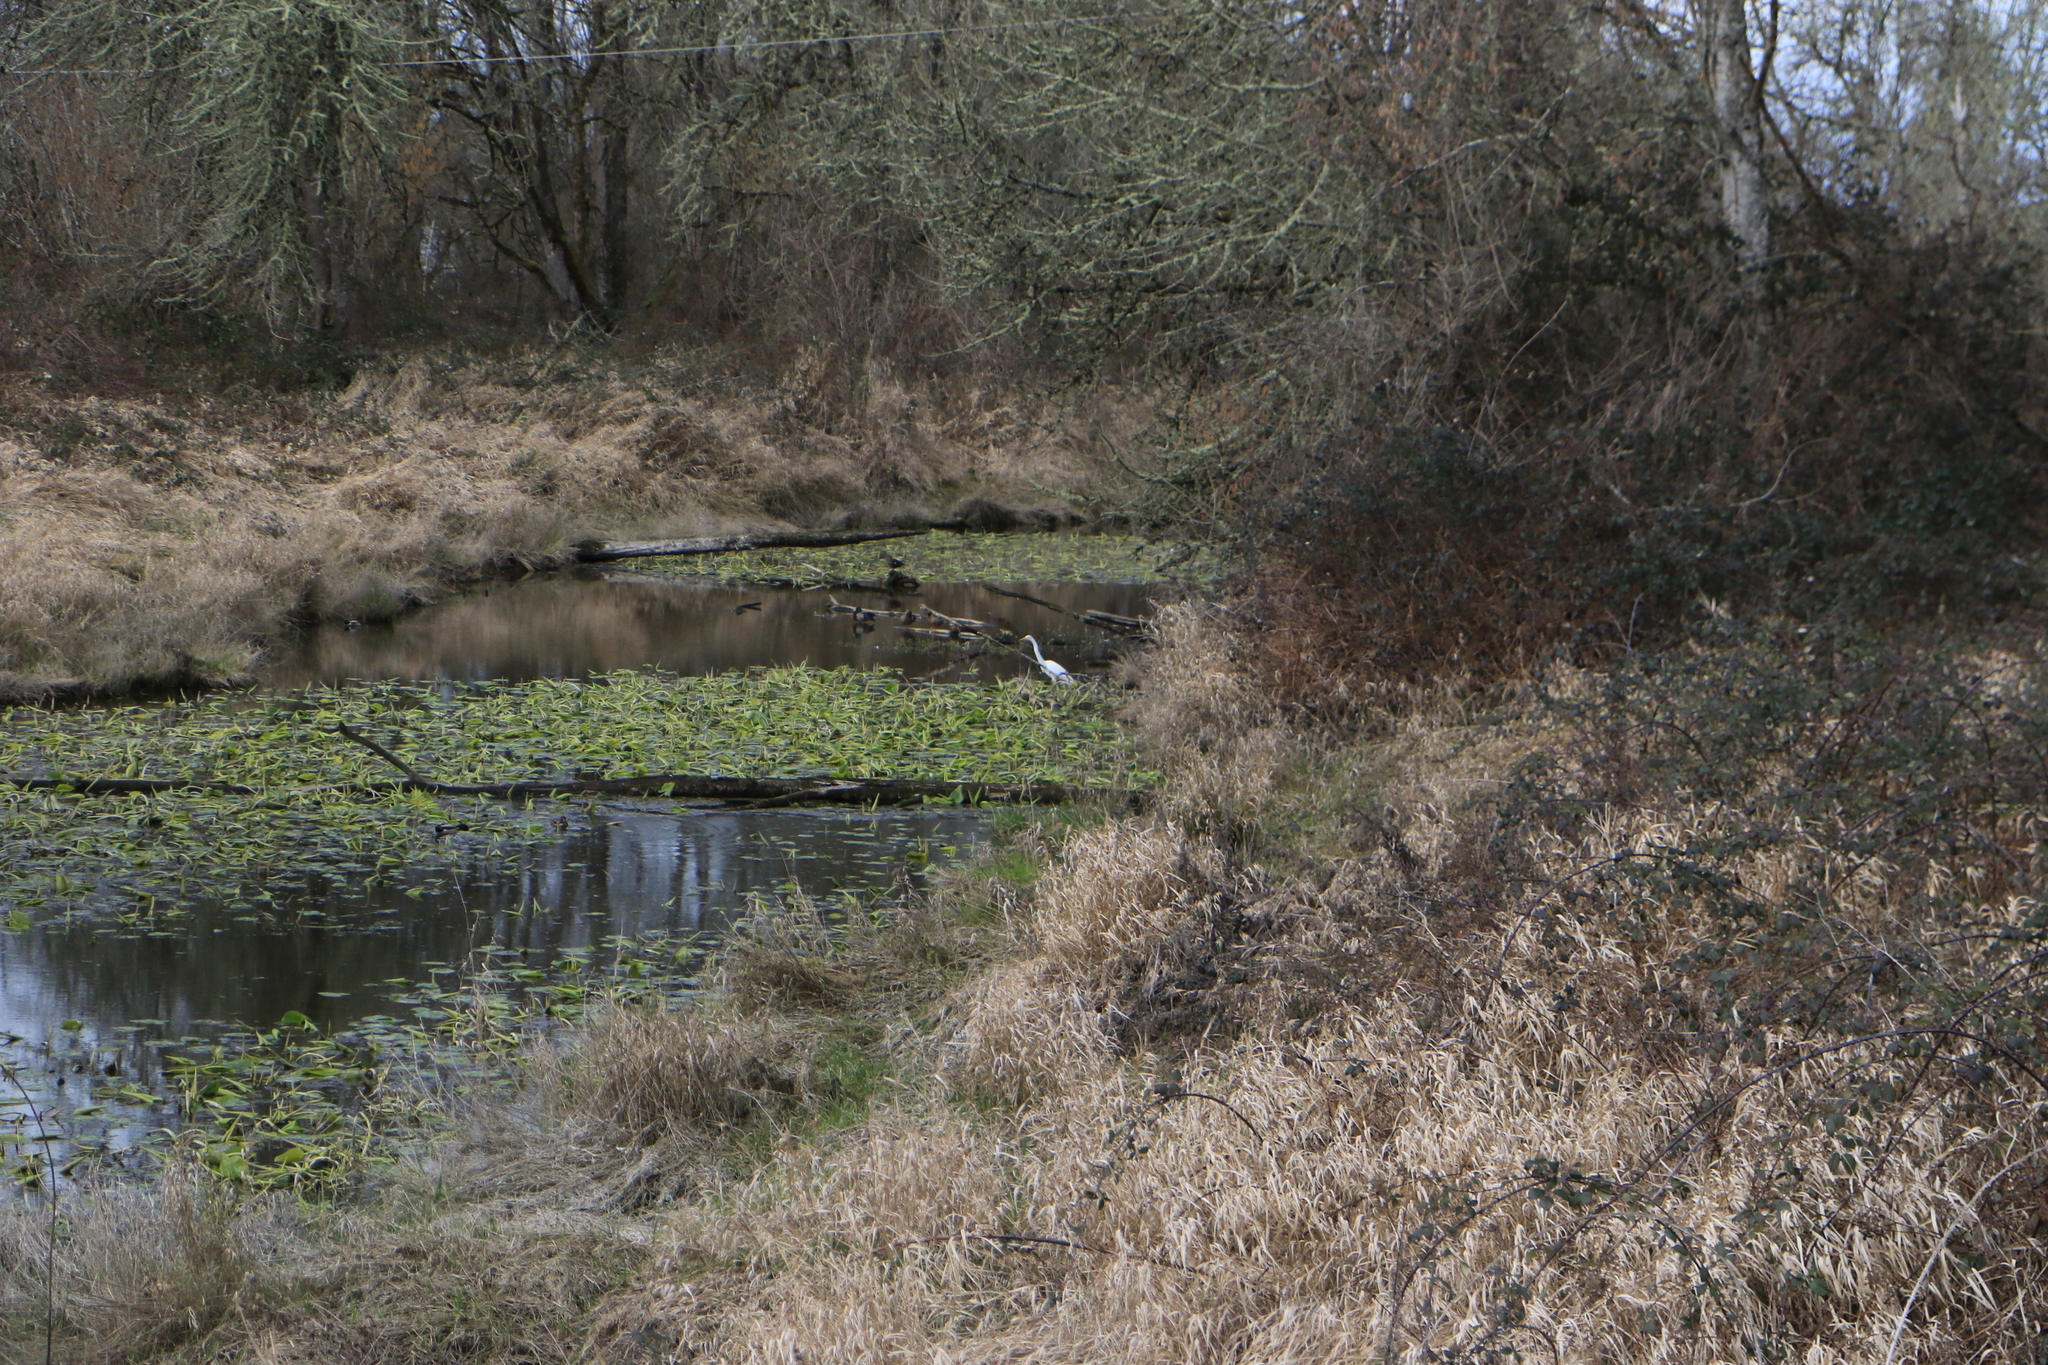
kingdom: Animalia
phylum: Chordata
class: Aves
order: Pelecaniformes
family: Ardeidae
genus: Ardea
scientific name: Ardea alba
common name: Great egret
